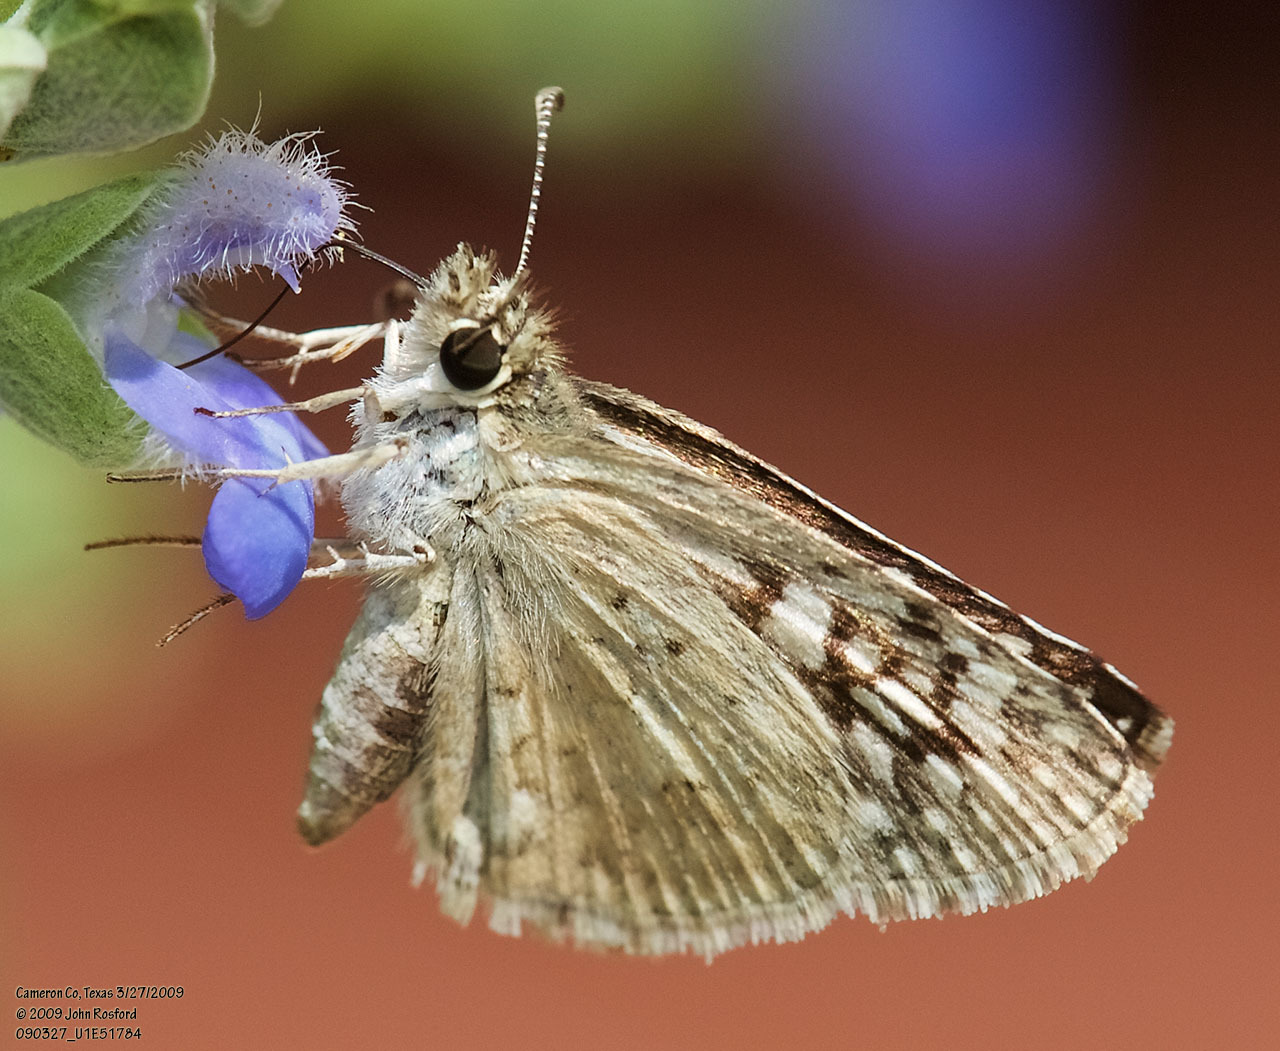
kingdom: Animalia
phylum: Arthropoda
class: Insecta
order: Lepidoptera
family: Hesperiidae
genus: Burnsius
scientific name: Burnsius philetas
